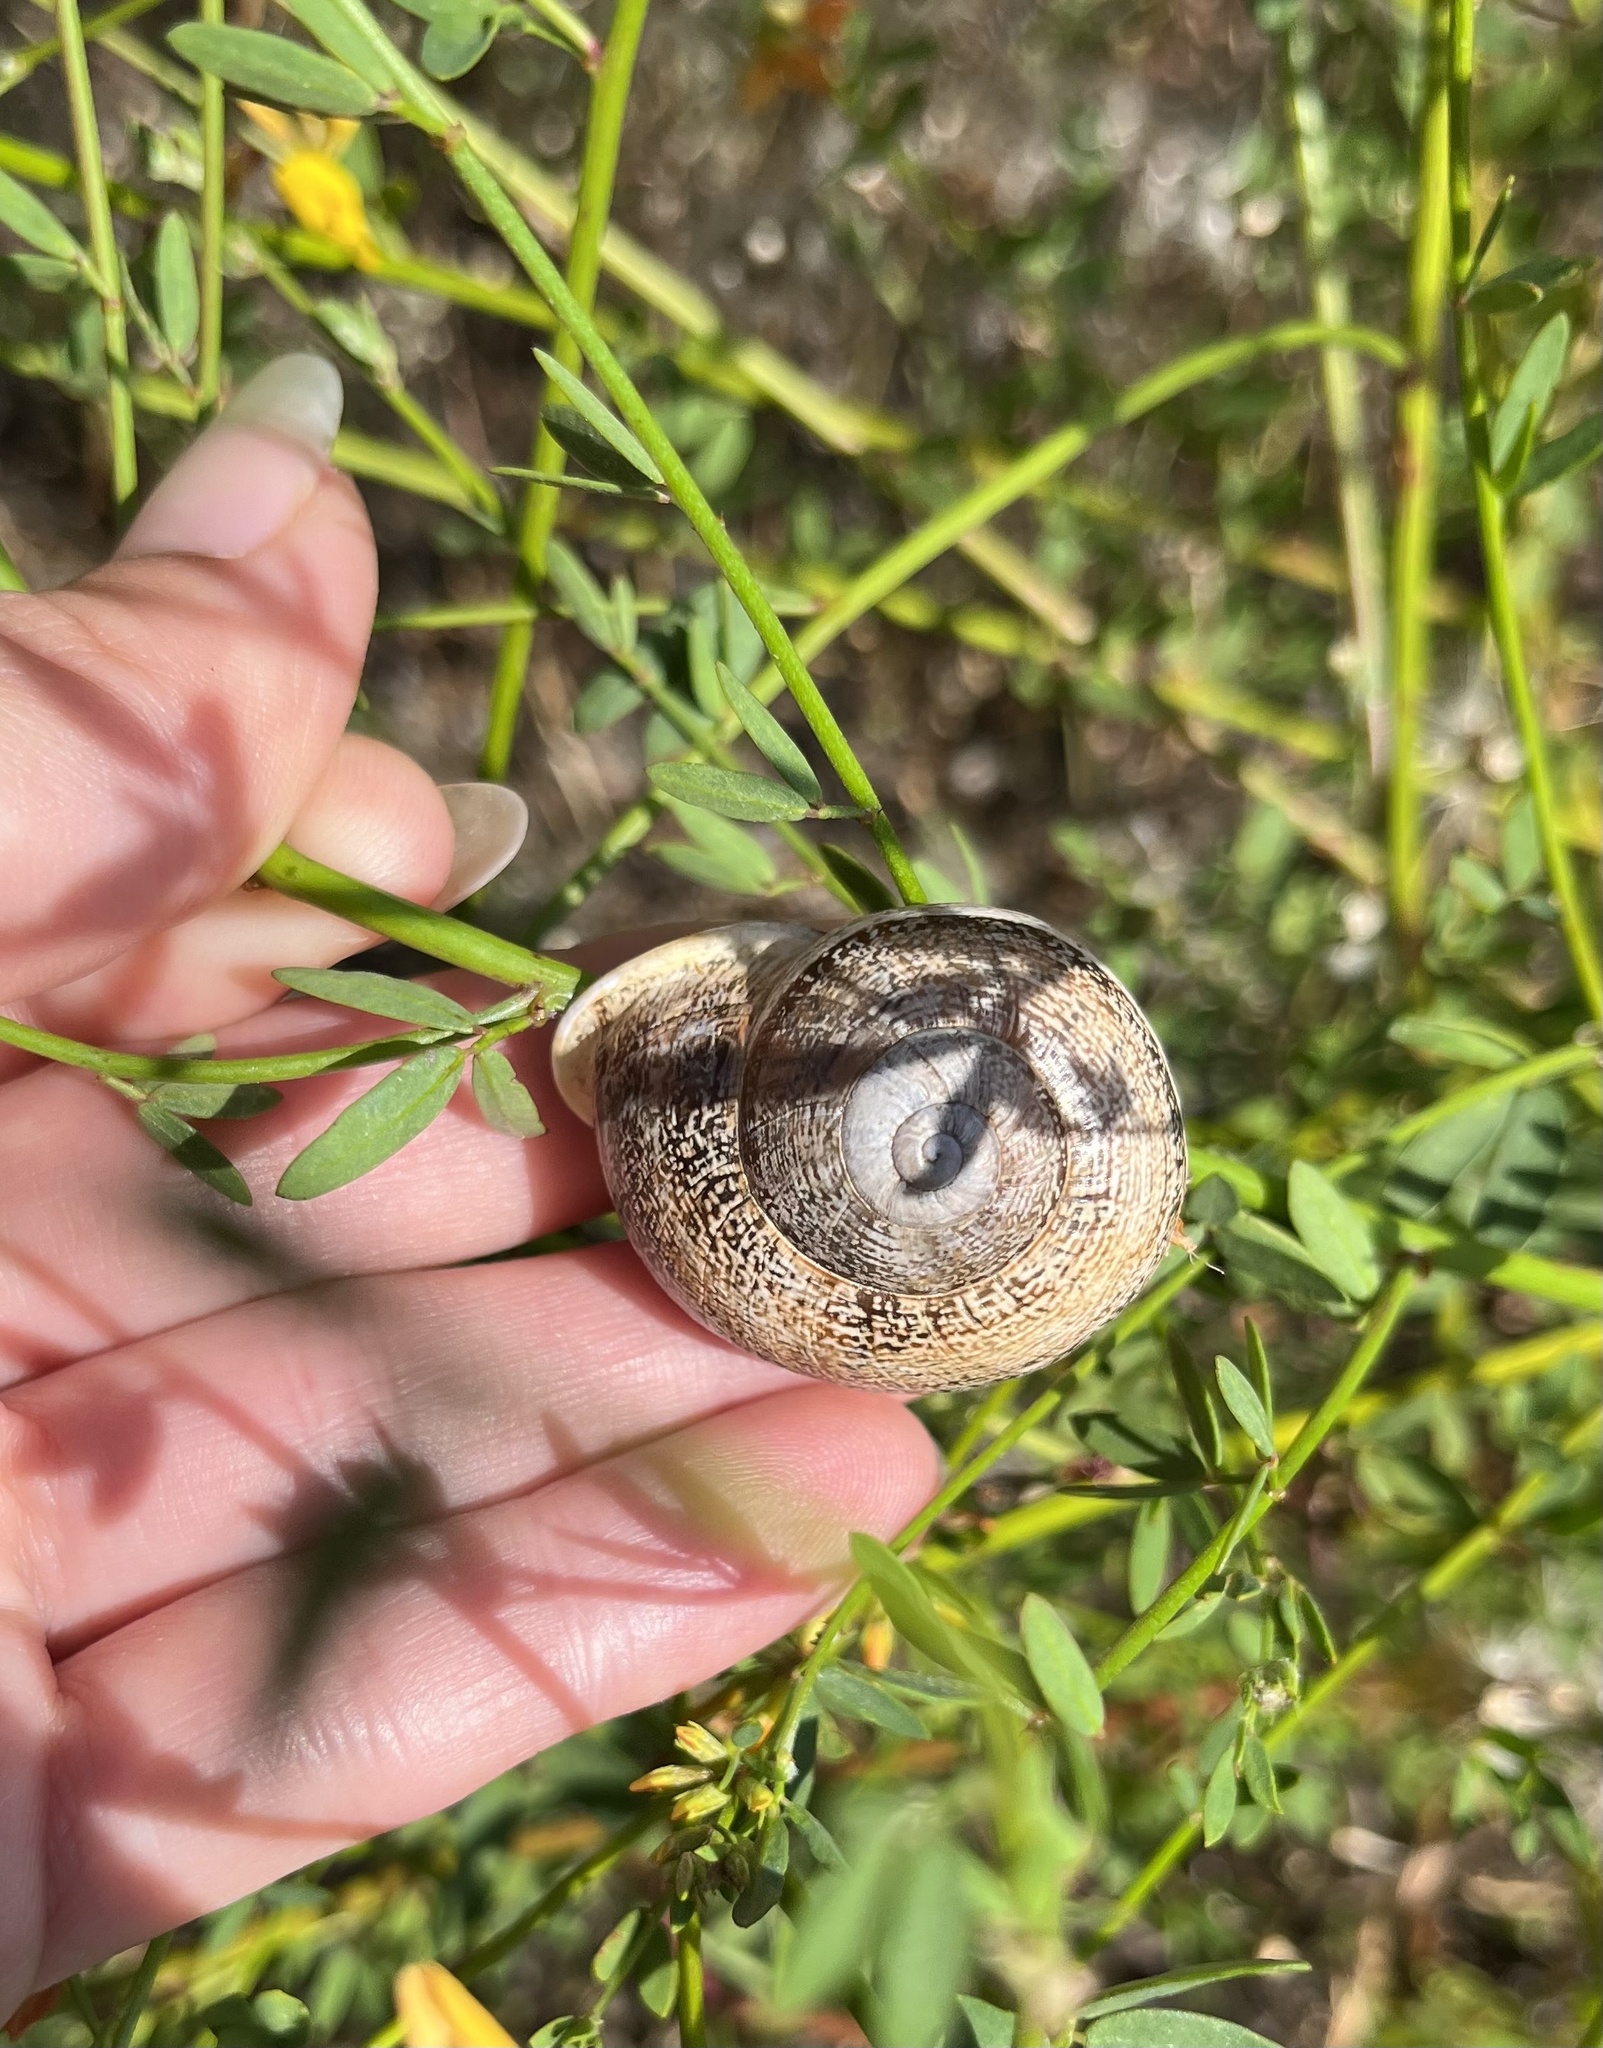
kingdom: Animalia
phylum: Mollusca
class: Gastropoda
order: Stylommatophora
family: Helicidae
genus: Otala
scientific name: Otala lactea
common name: Milk snail
